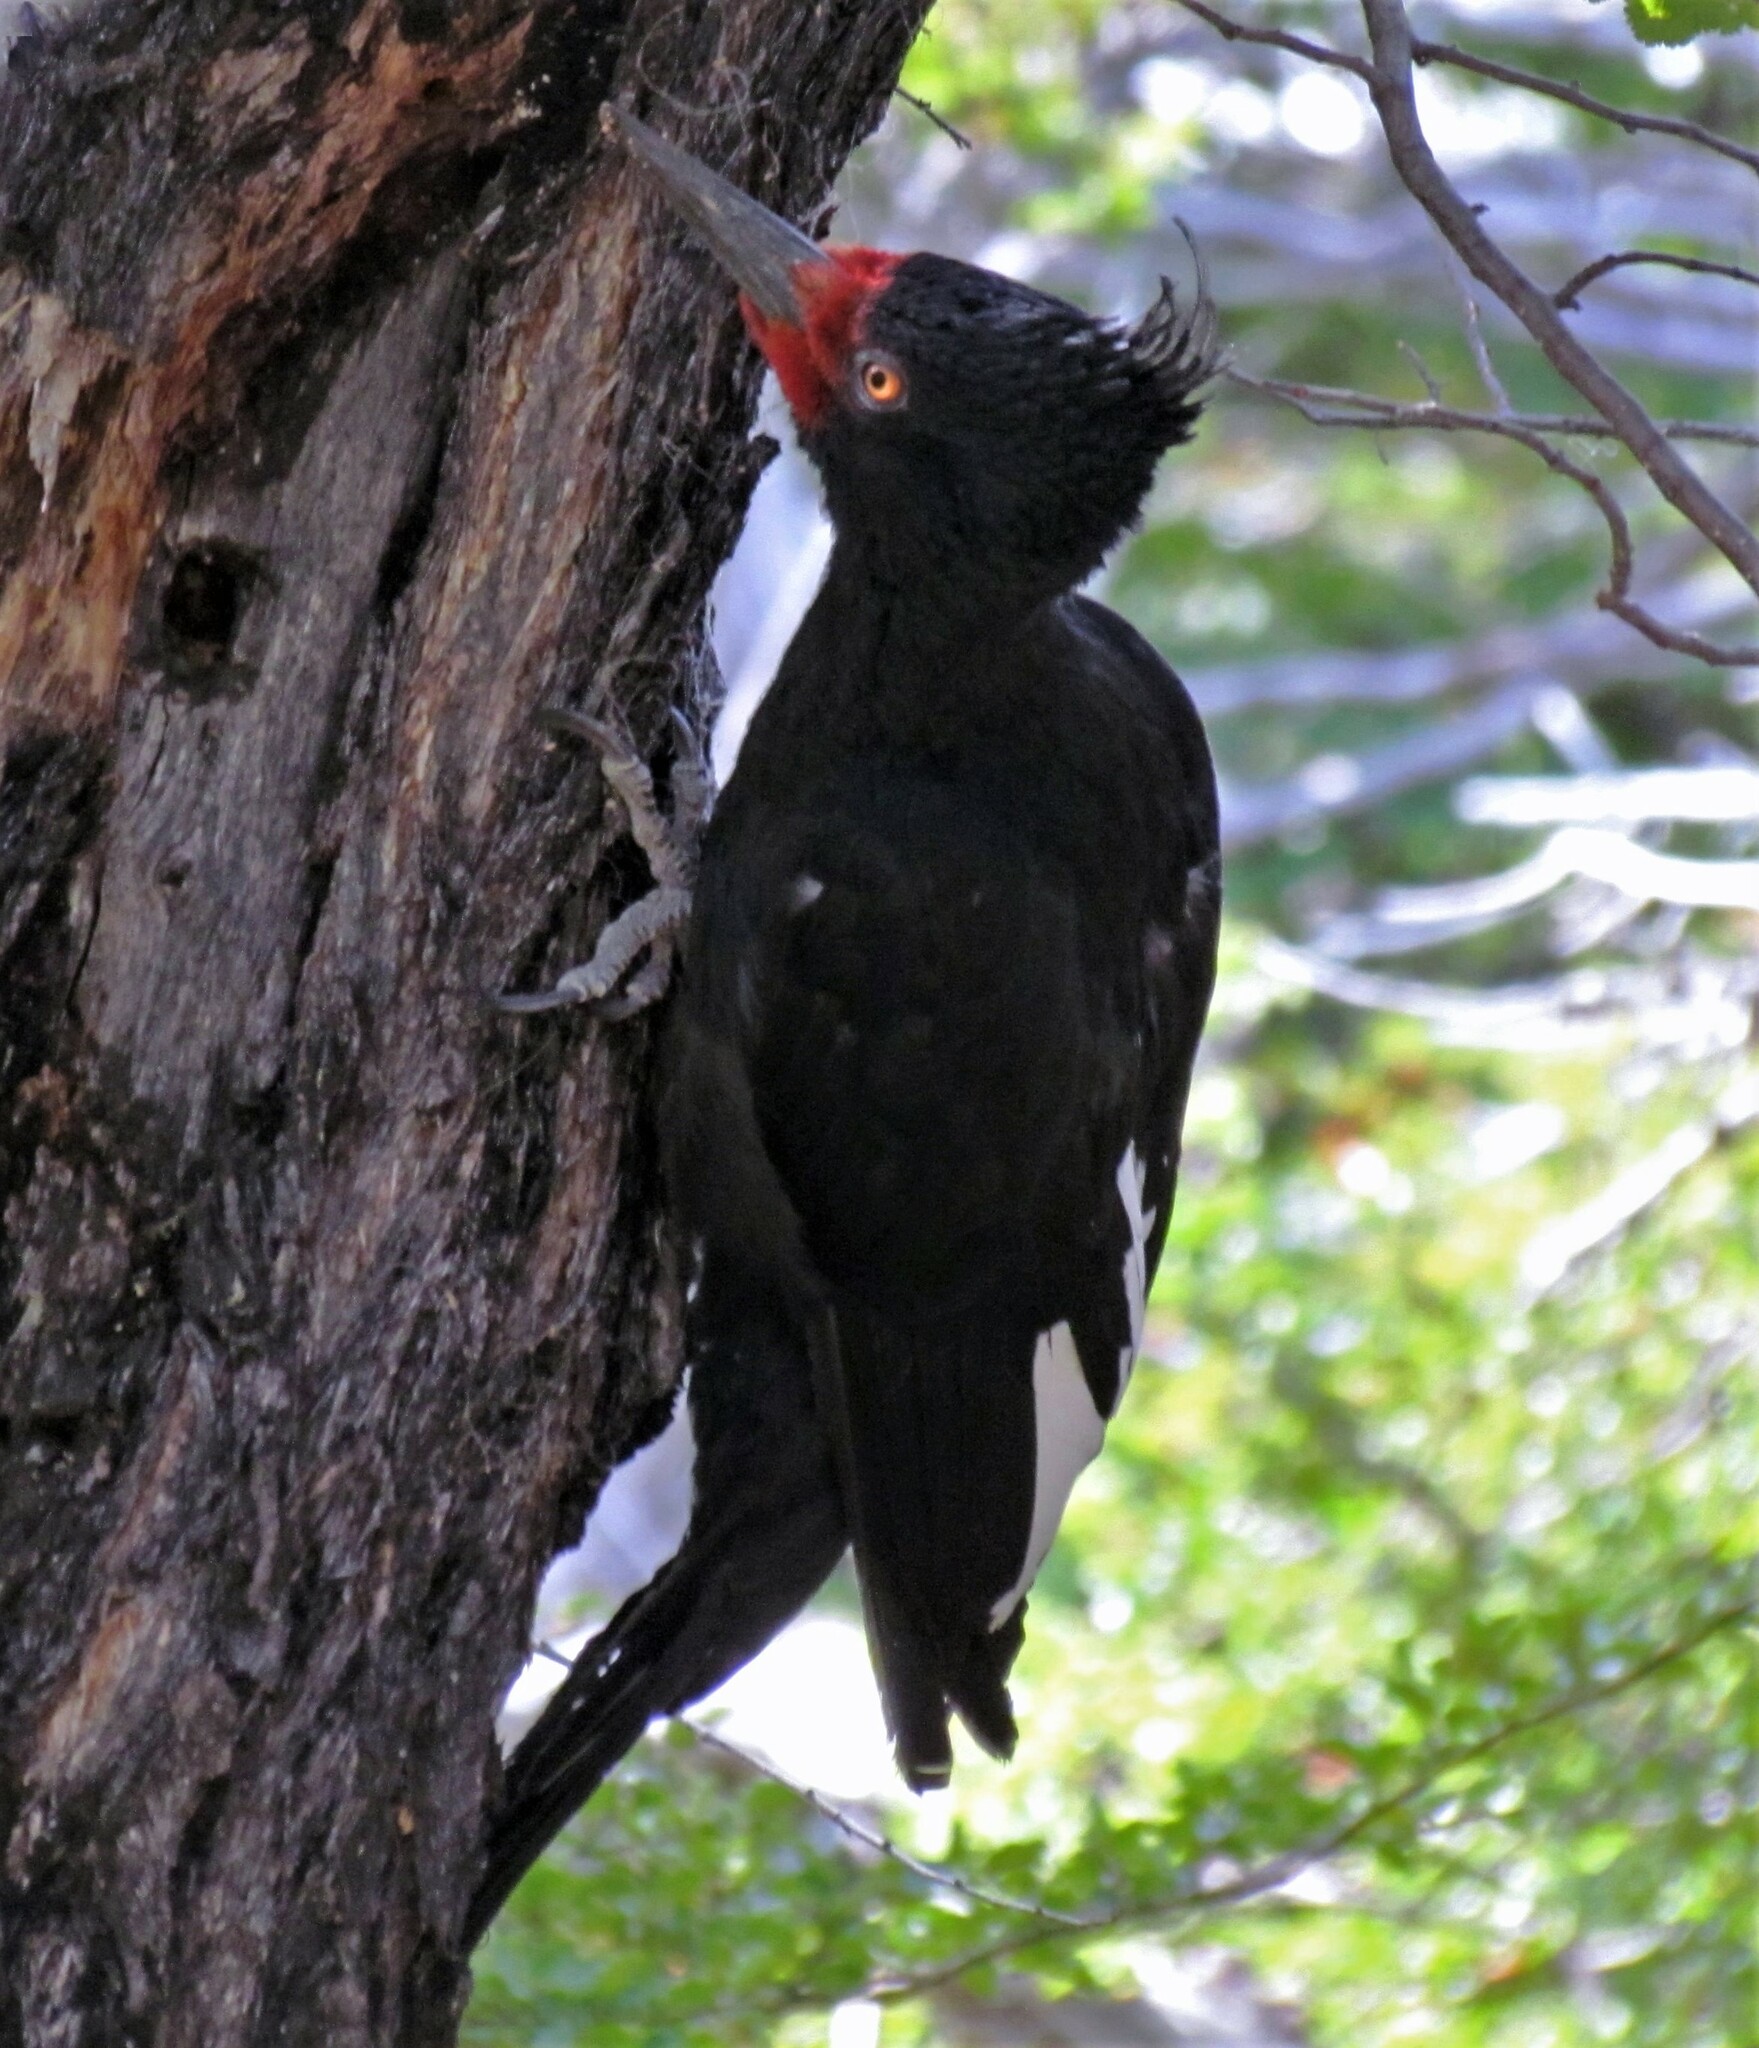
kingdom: Animalia
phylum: Chordata
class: Aves
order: Piciformes
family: Picidae
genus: Campephilus
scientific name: Campephilus magellanicus
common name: Magellanic woodpecker
